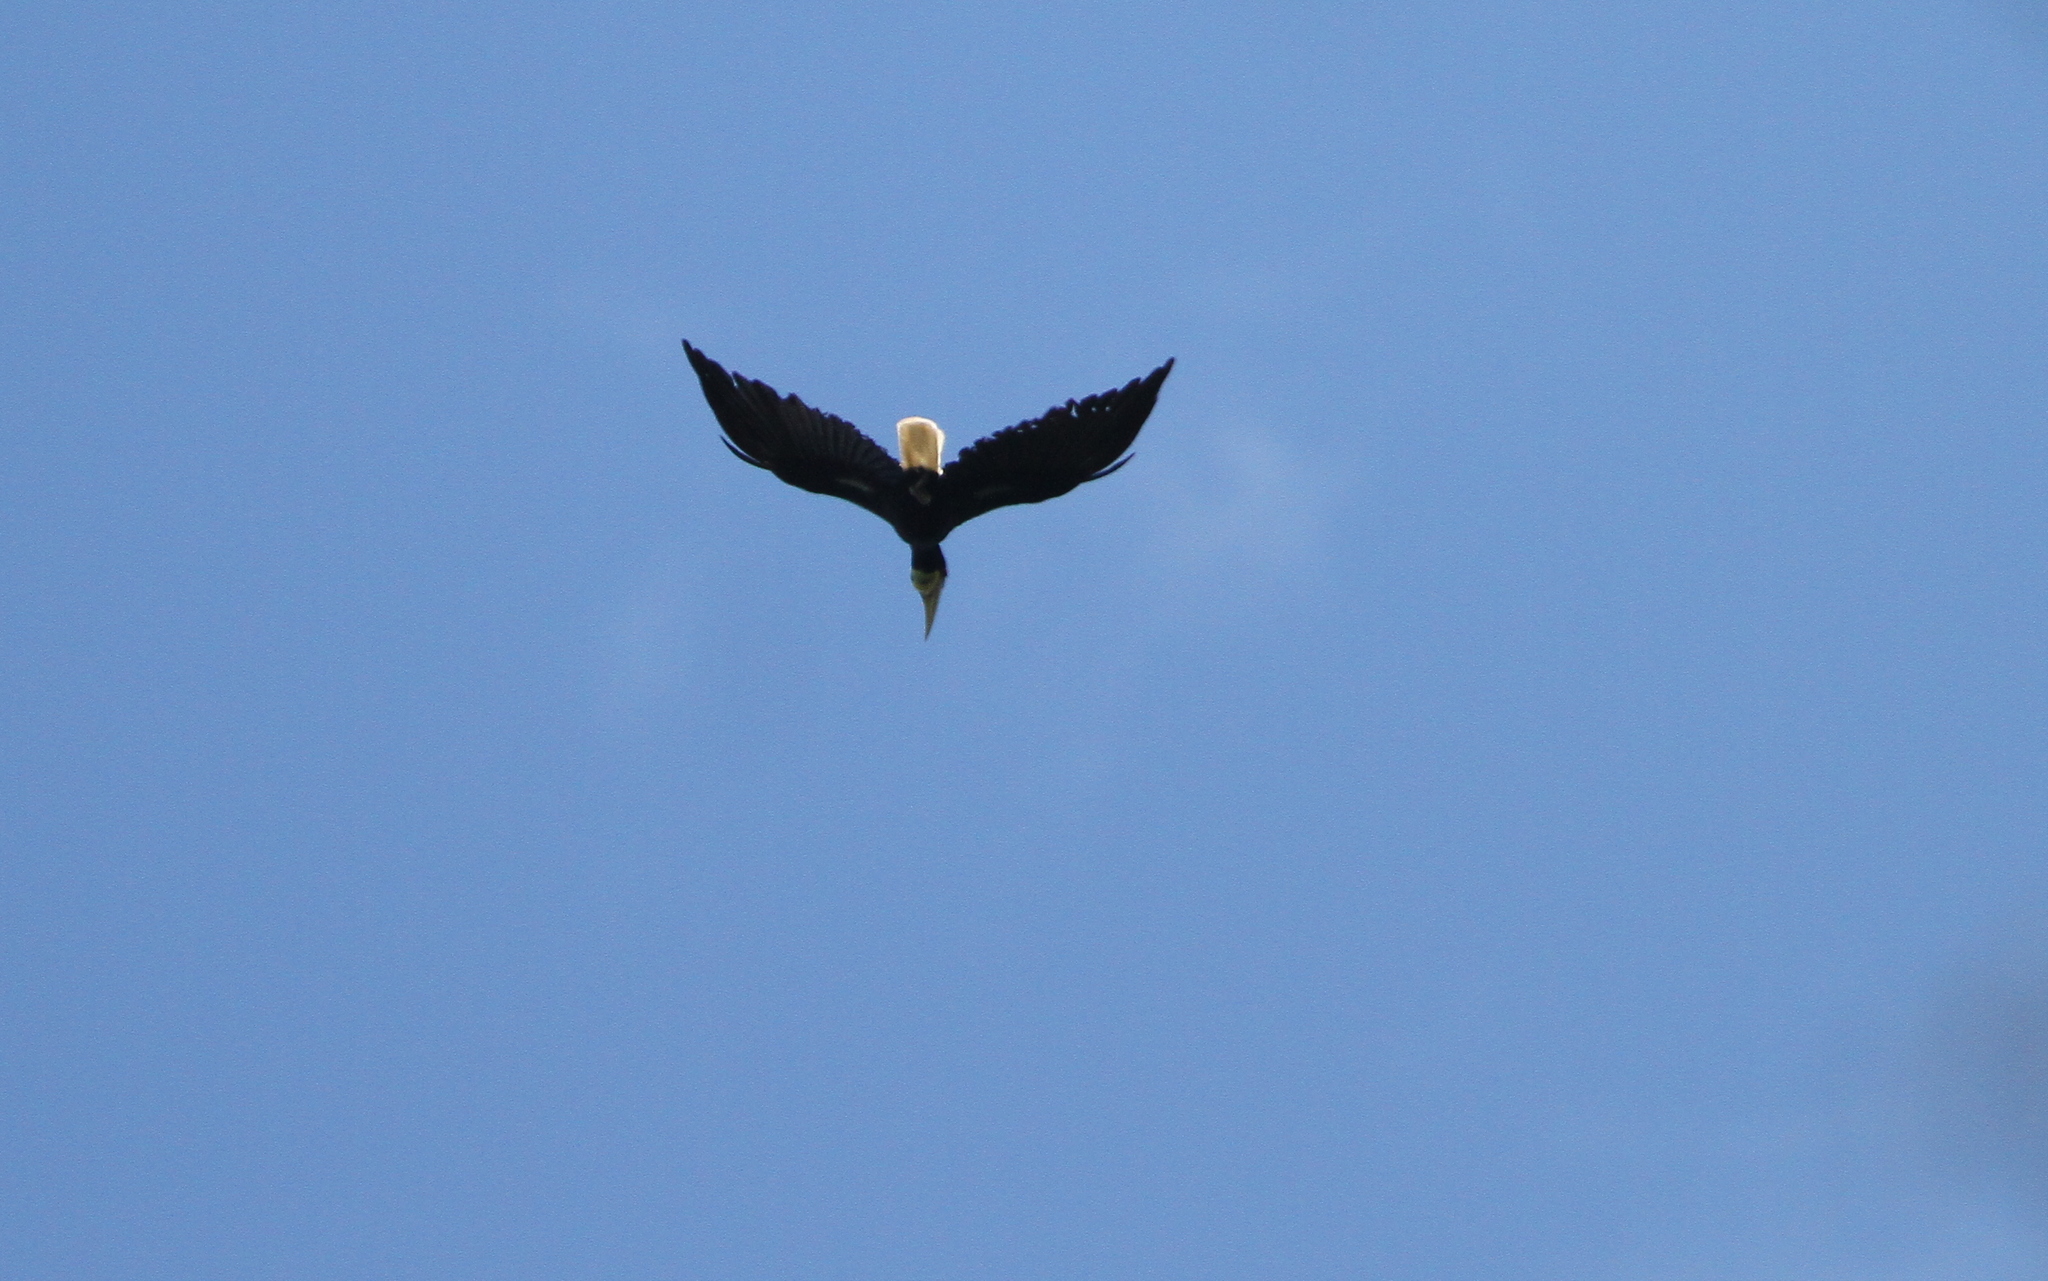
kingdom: Animalia
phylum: Chordata
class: Aves
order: Bucerotiformes
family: Bucerotidae
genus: Rhyticeros
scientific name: Rhyticeros undulatus
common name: Wreathed hornbill
